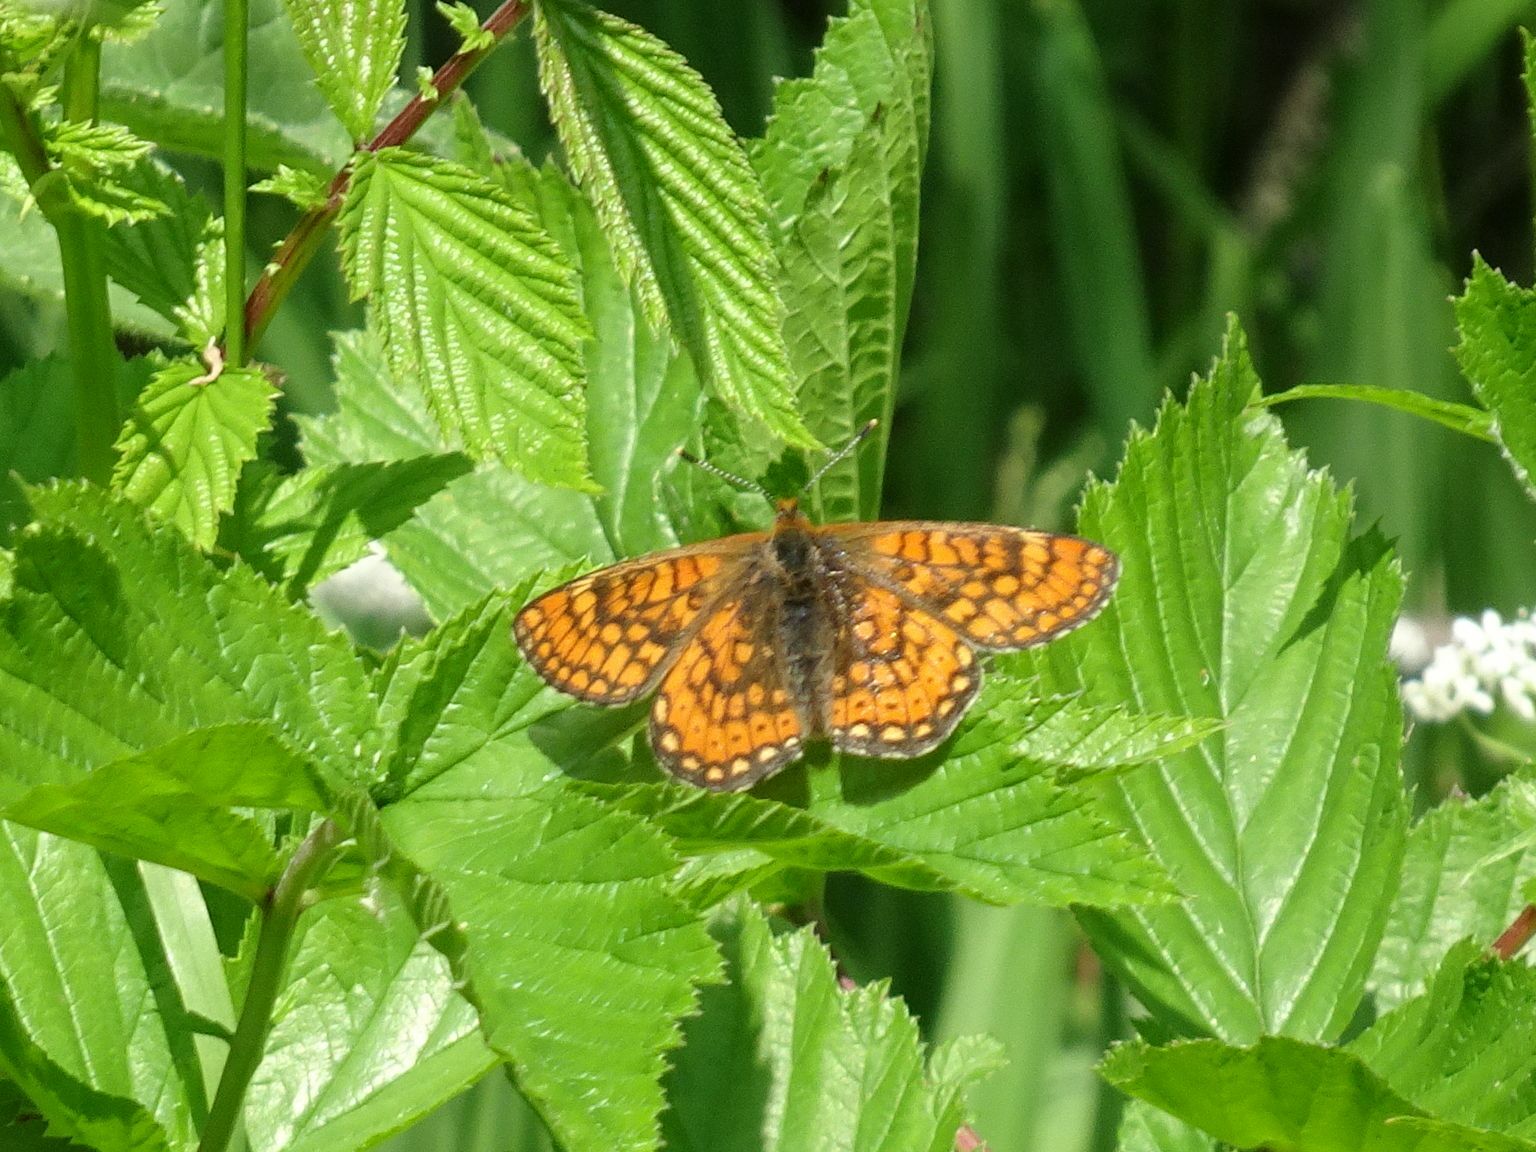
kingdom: Animalia
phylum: Arthropoda
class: Insecta
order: Lepidoptera
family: Nymphalidae
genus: Euphydryas
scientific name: Euphydryas aurinia
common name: Marsh fritillary
